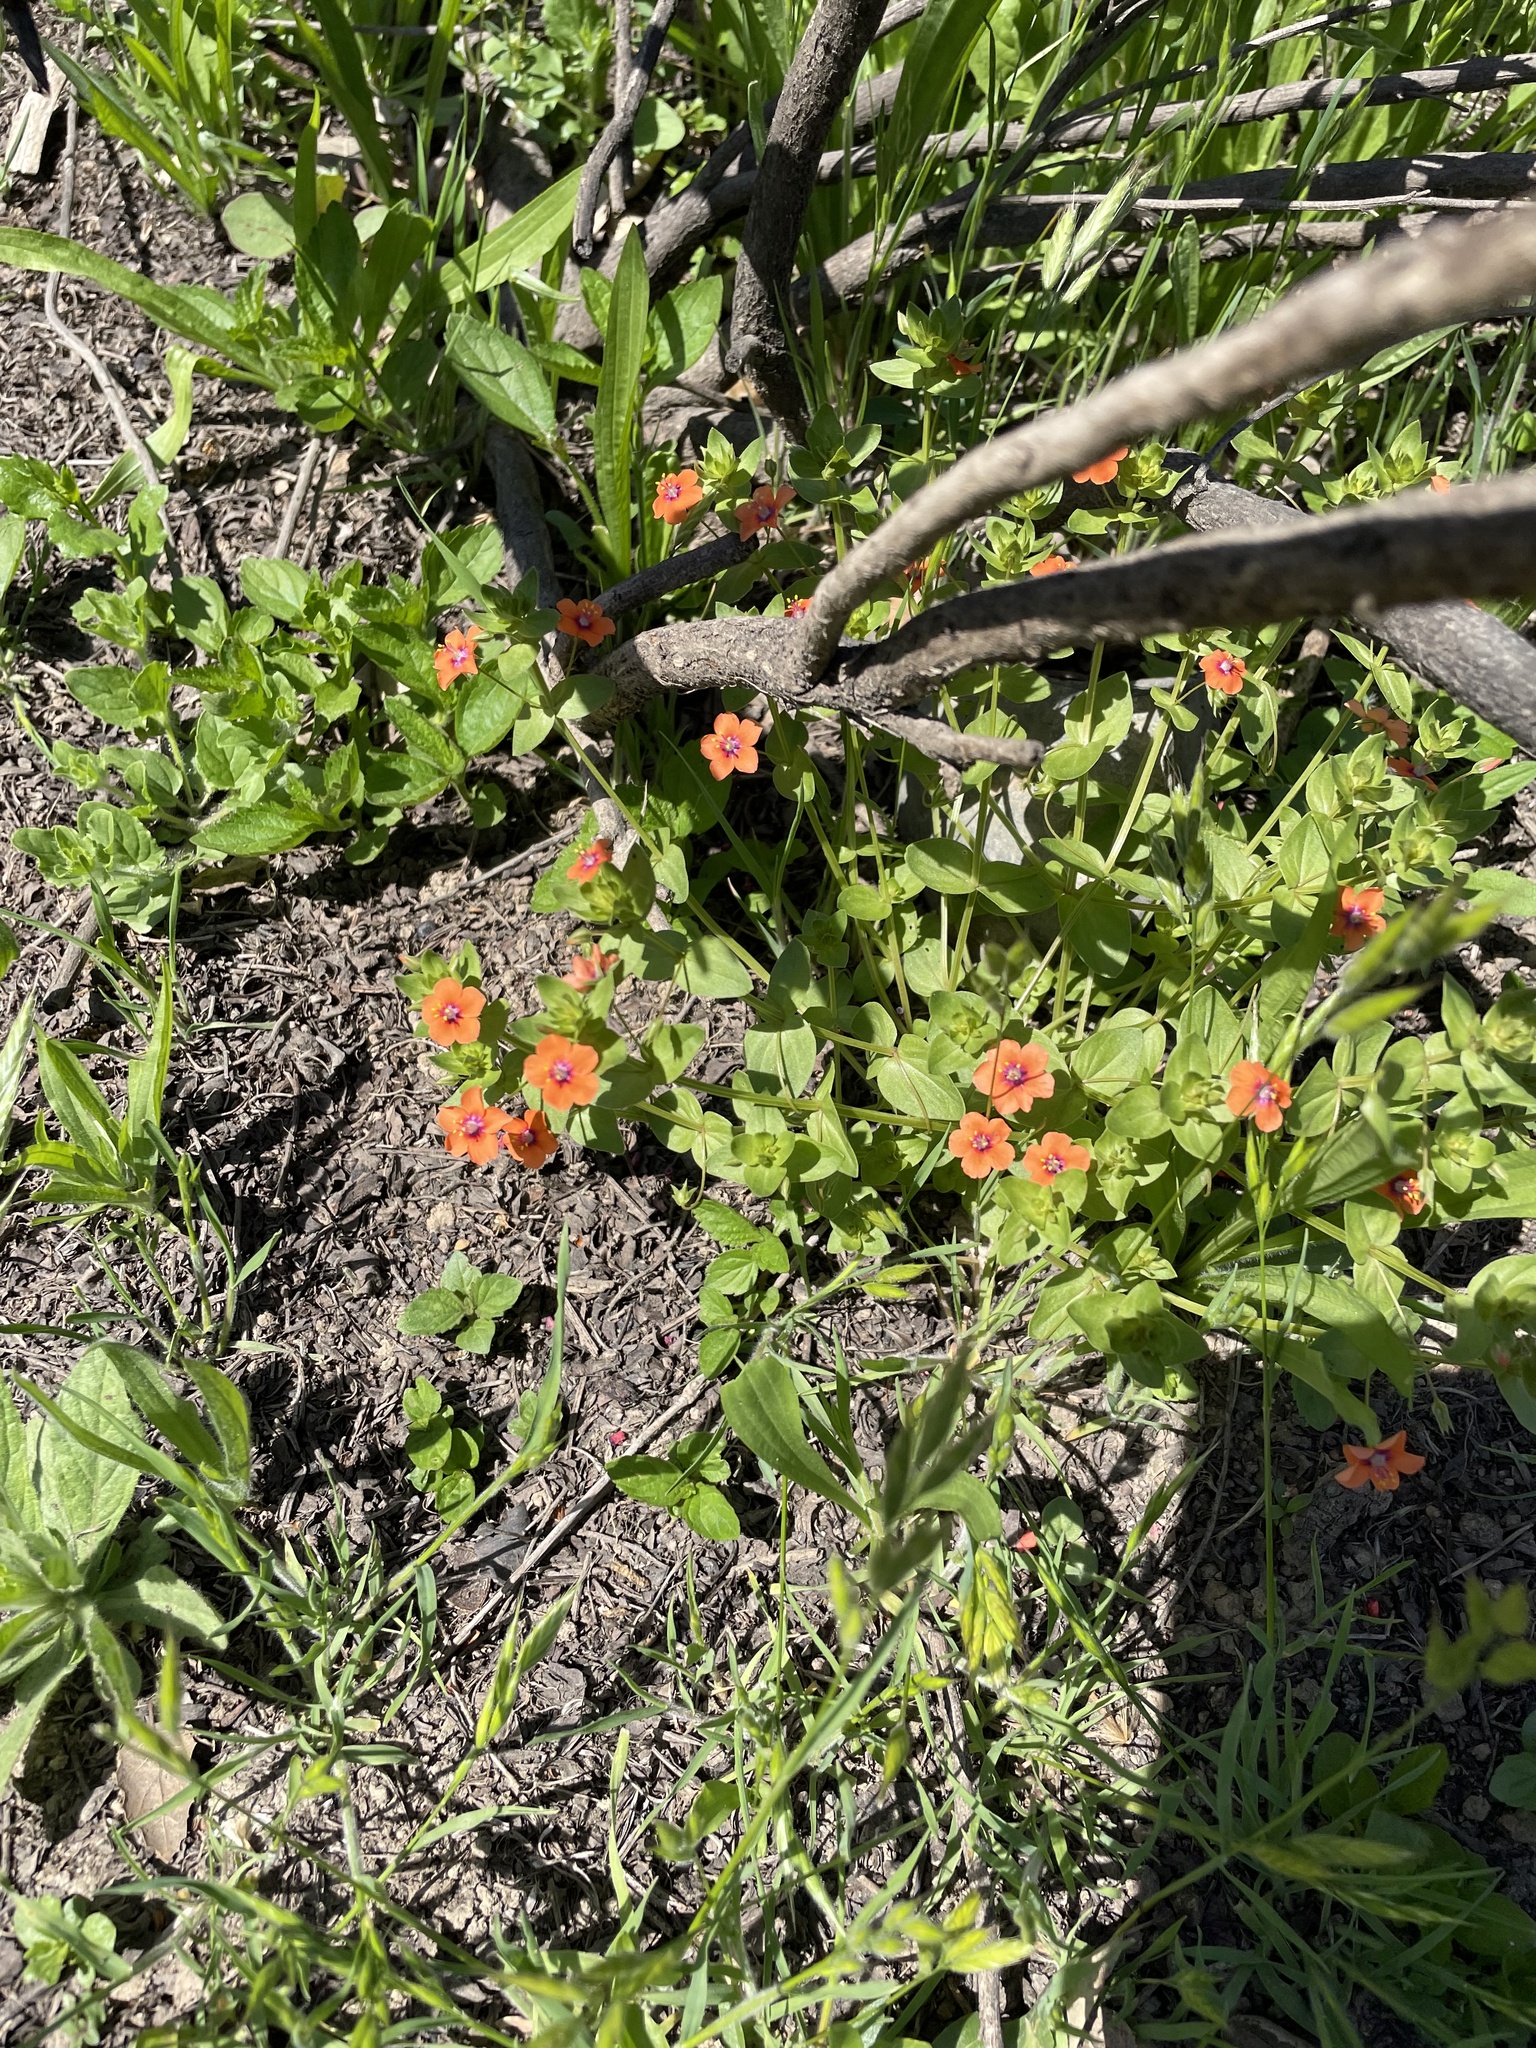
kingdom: Plantae
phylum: Tracheophyta
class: Magnoliopsida
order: Ericales
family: Primulaceae
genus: Lysimachia
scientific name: Lysimachia arvensis
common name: Scarlet pimpernel
